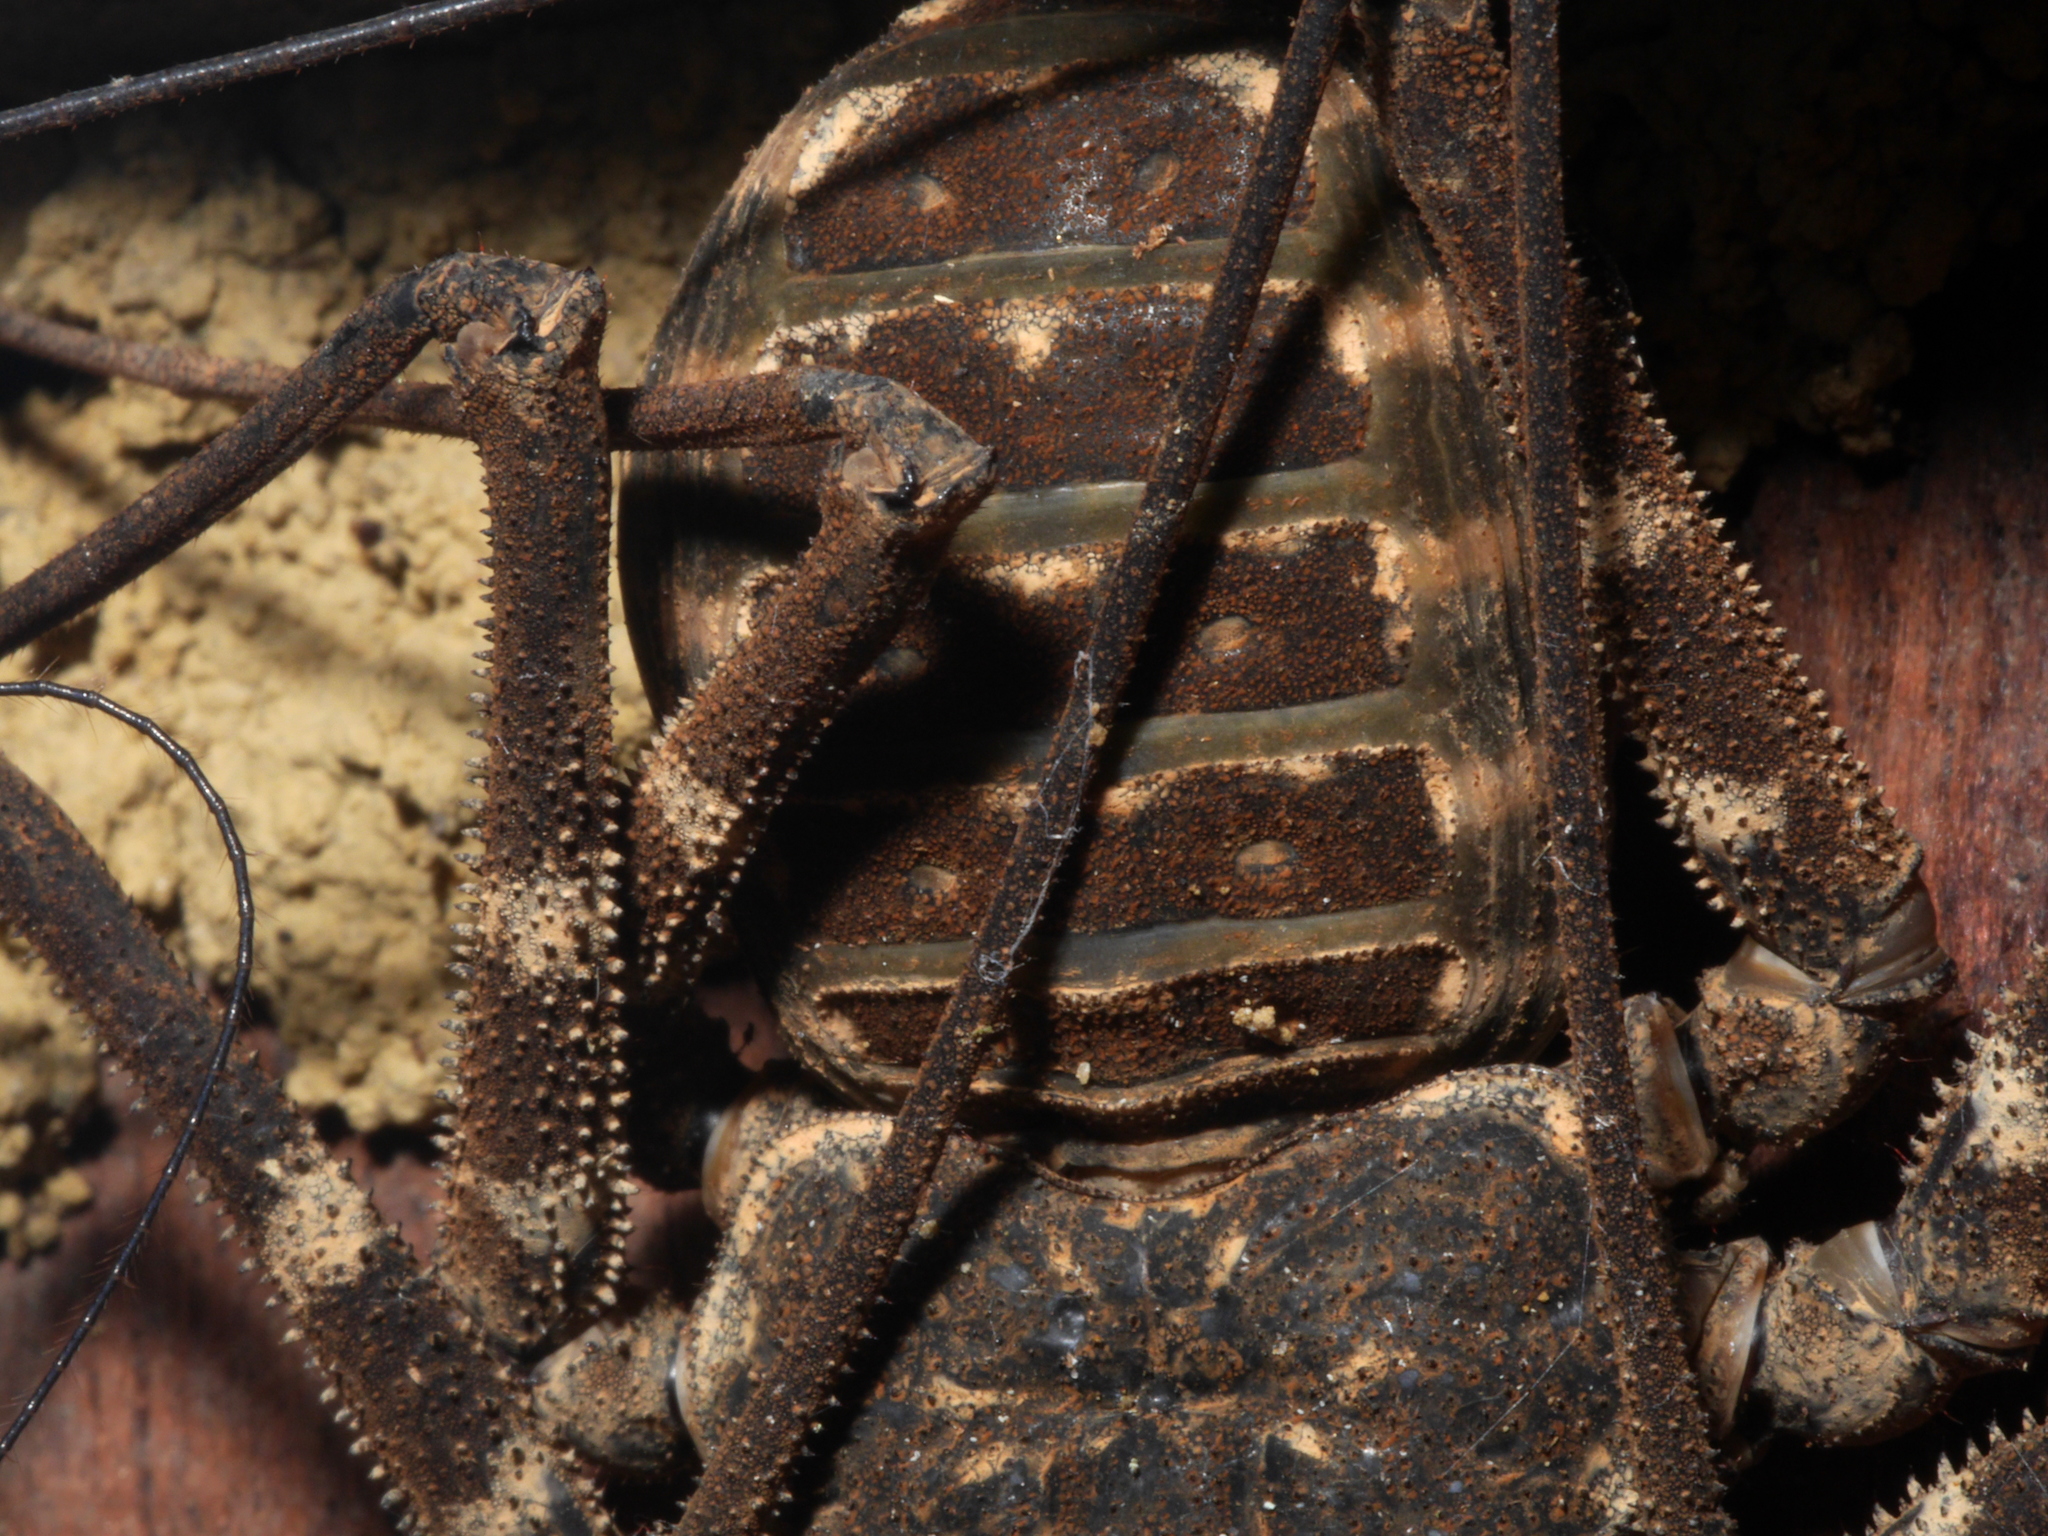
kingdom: Animalia
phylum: Arthropoda
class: Arachnida
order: Amblypygi
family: Phrynichidae
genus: Damon
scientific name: Damon johnstonii
